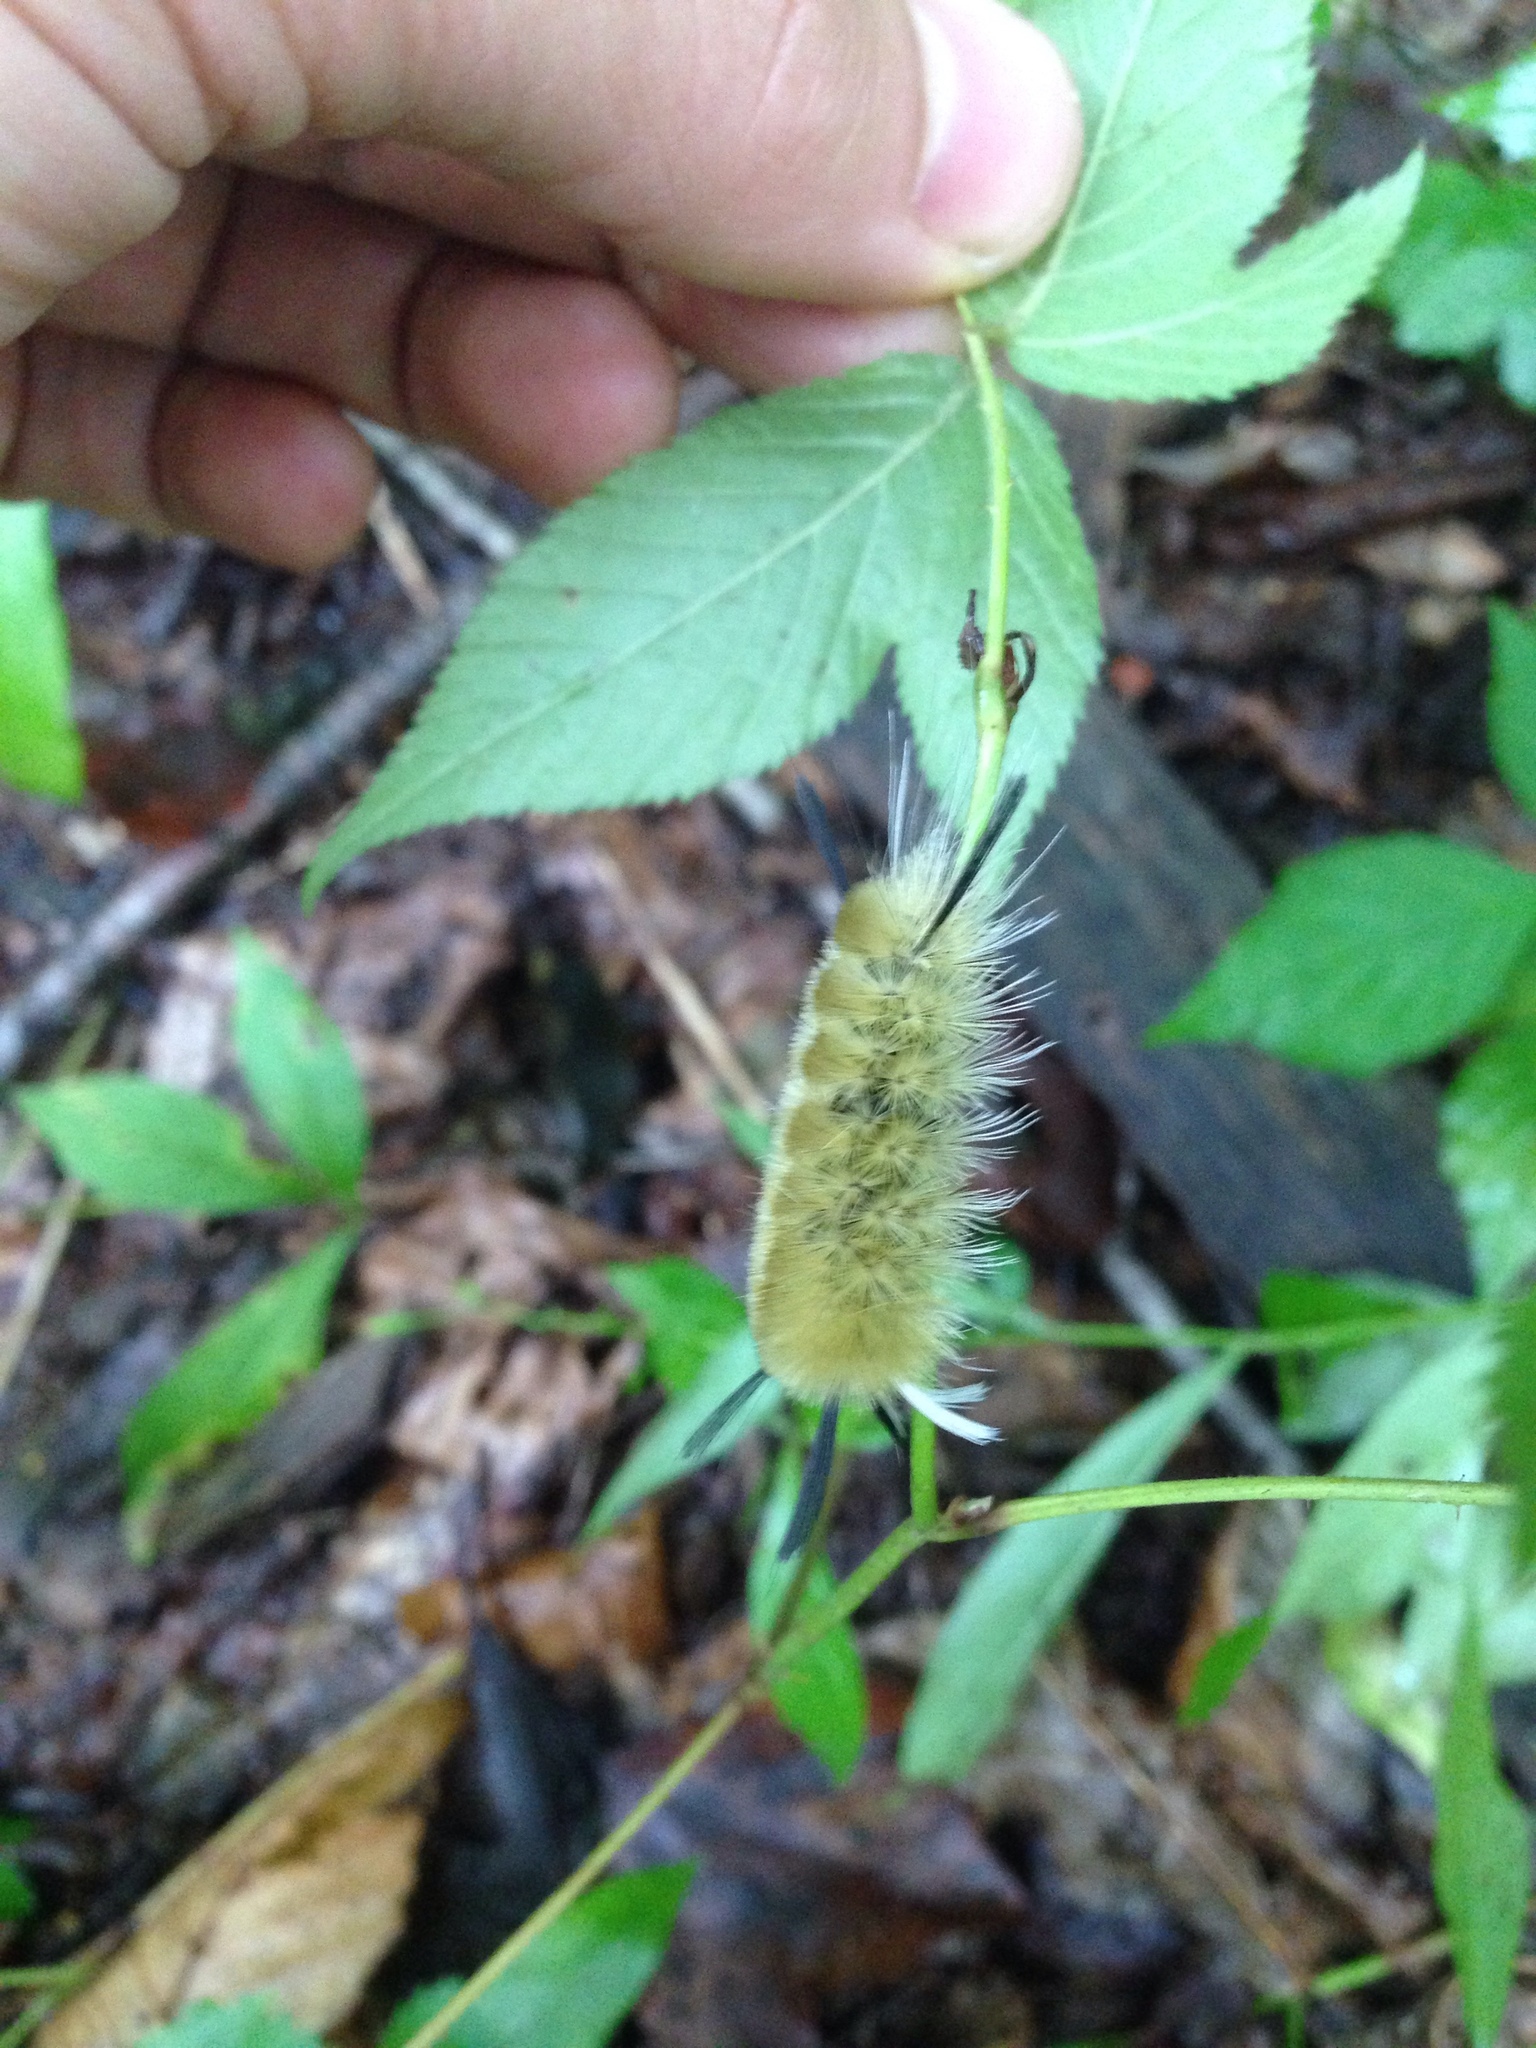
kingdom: Animalia
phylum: Arthropoda
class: Insecta
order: Lepidoptera
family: Erebidae
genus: Halysidota
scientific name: Halysidota tessellaris
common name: Banded tussock moth
